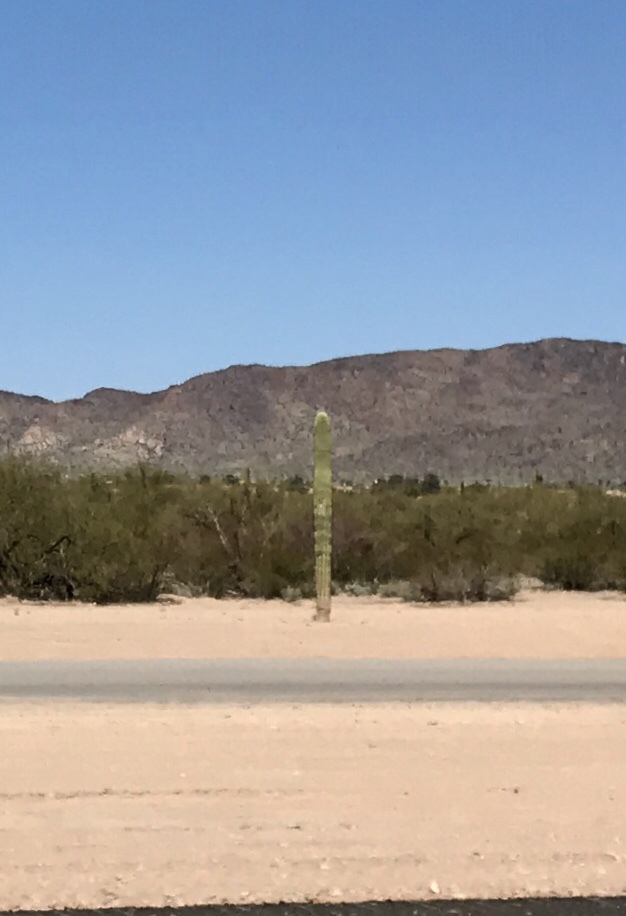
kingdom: Plantae
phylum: Tracheophyta
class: Magnoliopsida
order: Caryophyllales
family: Cactaceae
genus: Carnegiea
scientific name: Carnegiea gigantea
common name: Saguaro
